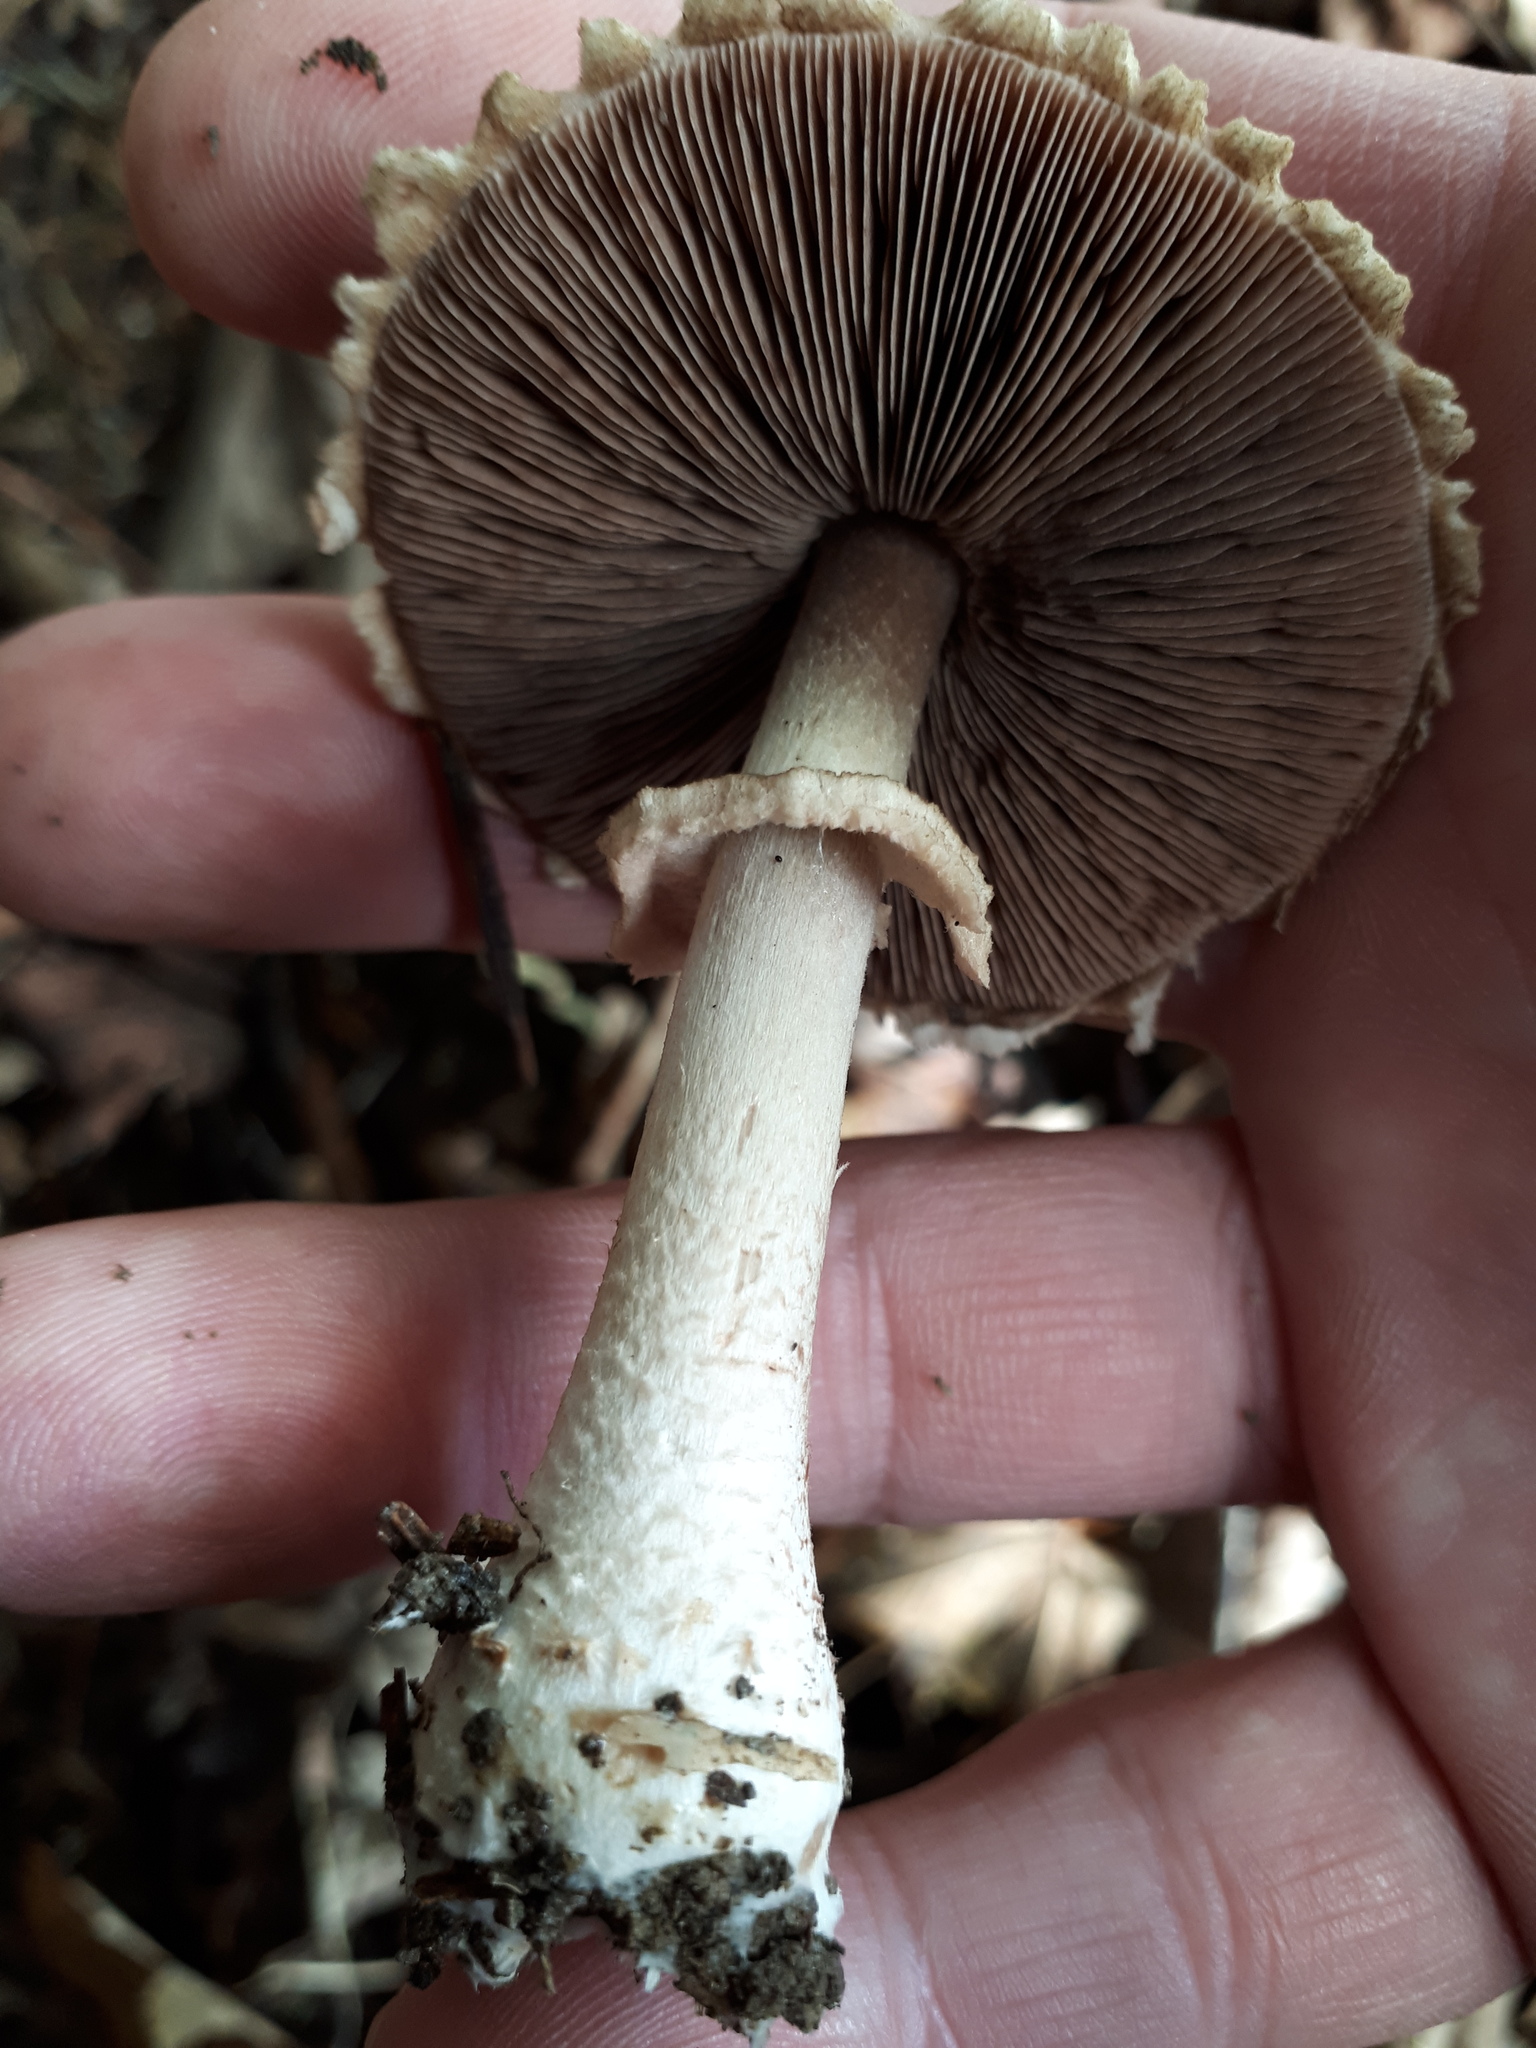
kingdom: Fungi
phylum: Basidiomycota
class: Agaricomycetes
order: Agaricales
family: Agaricaceae
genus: Agaricus
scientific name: Agaricus sylvaticus
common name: Blushing wood mushroom
